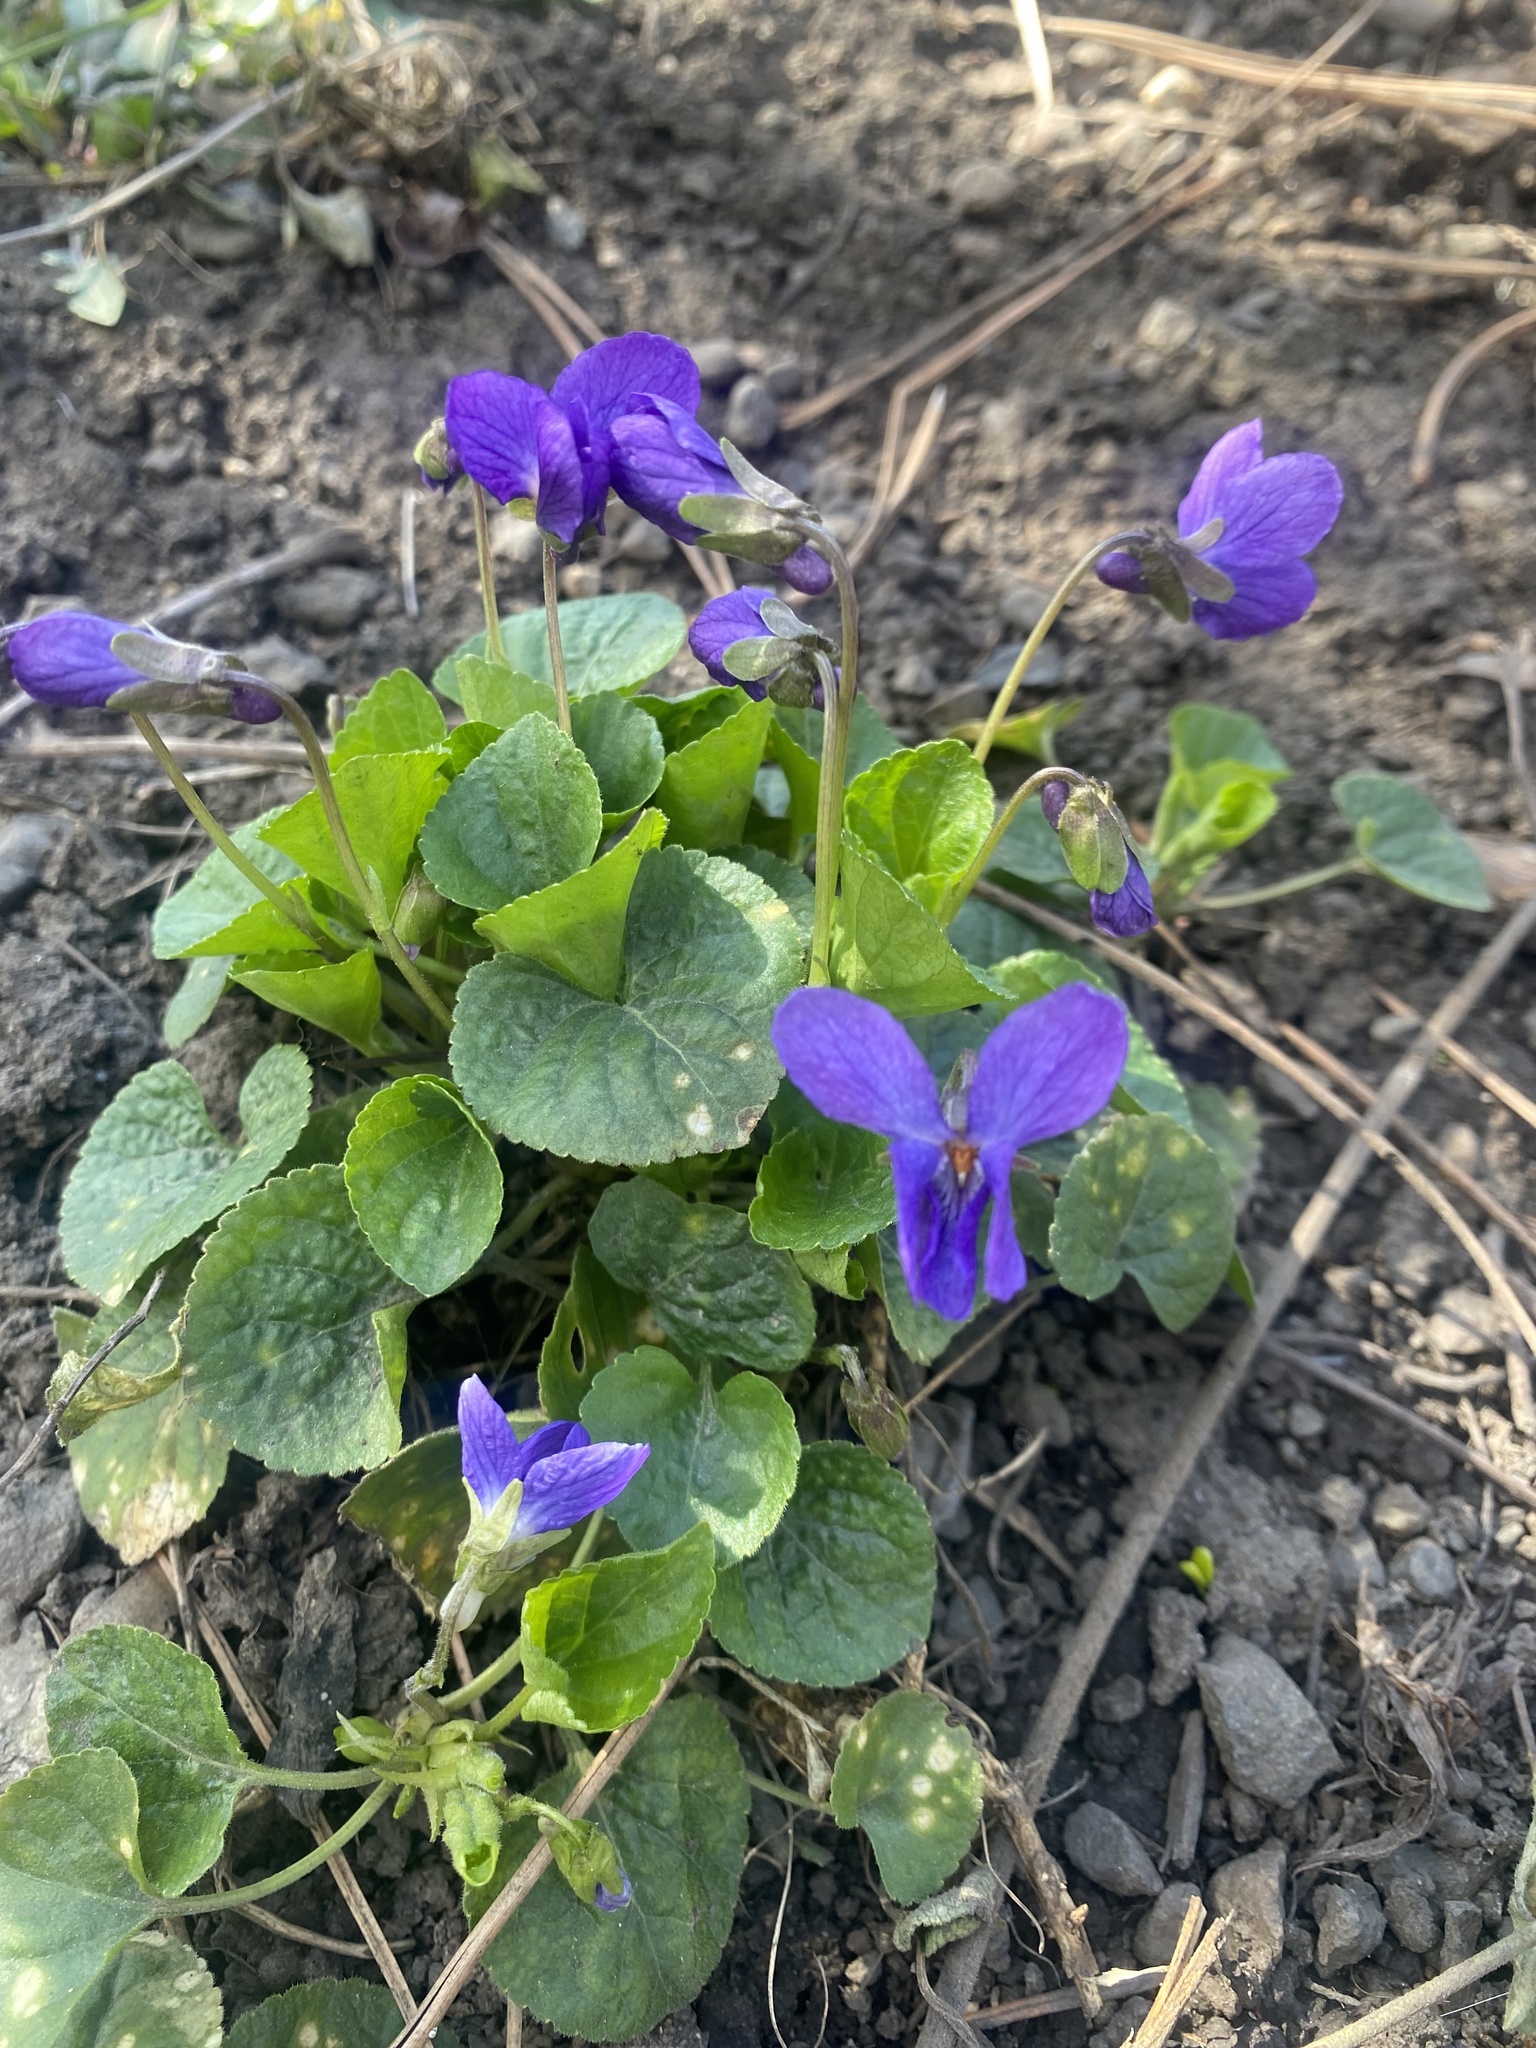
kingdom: Plantae
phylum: Tracheophyta
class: Magnoliopsida
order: Malpighiales
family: Violaceae
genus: Viola
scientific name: Viola odorata
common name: Sweet violet
